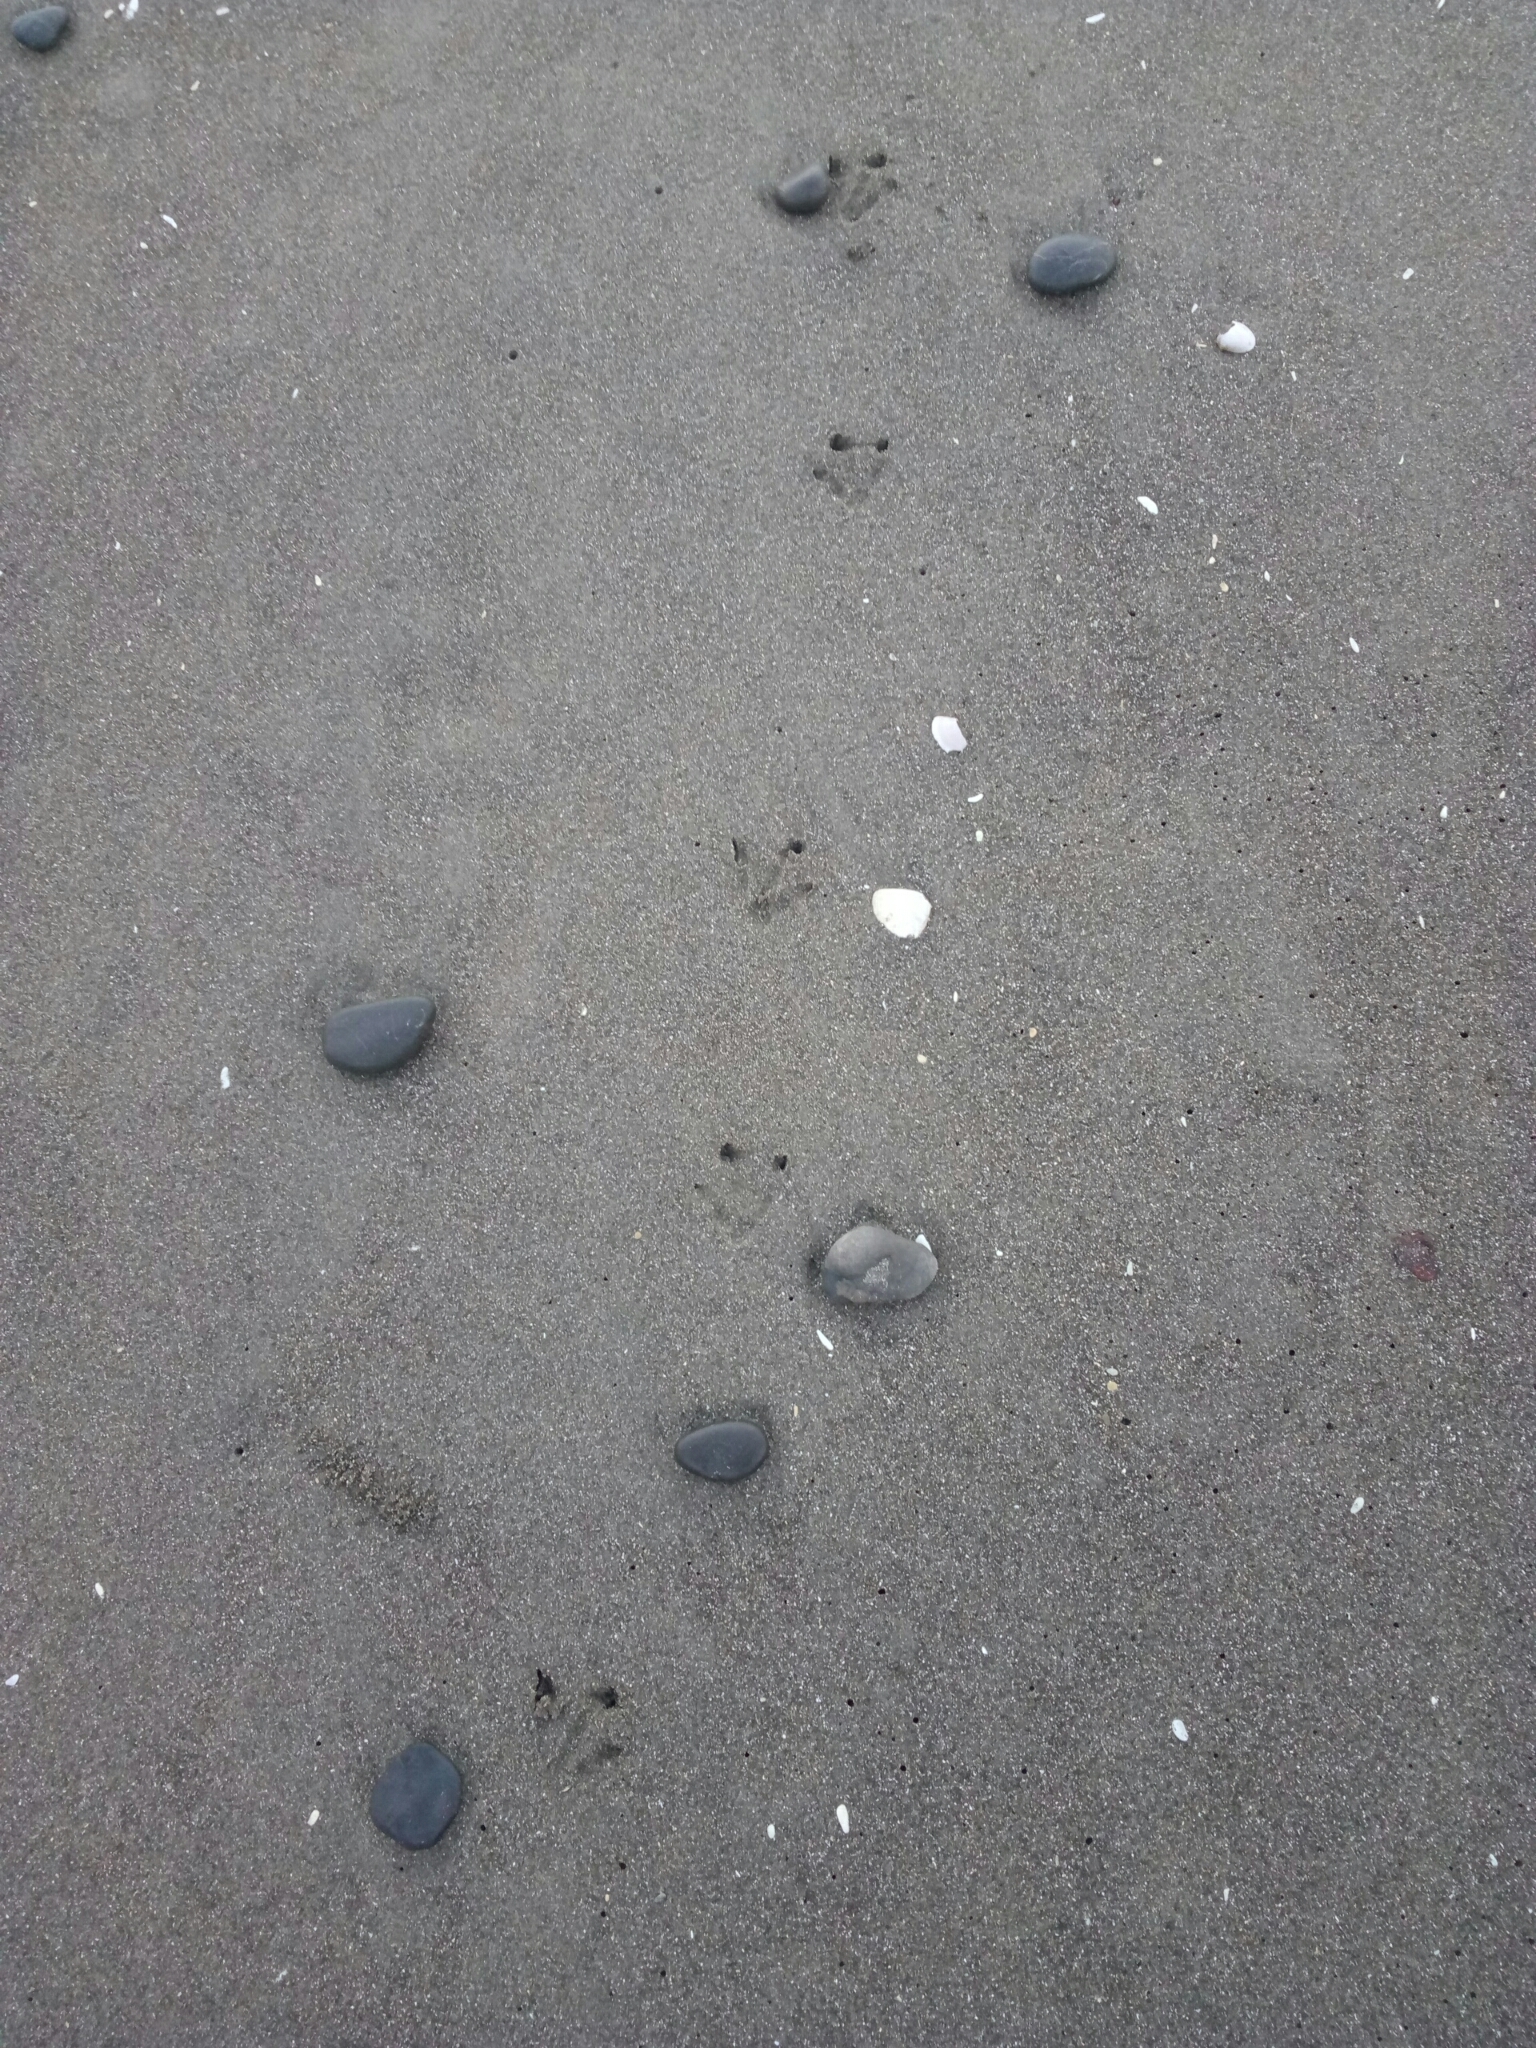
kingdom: Animalia
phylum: Chordata
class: Aves
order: Sphenisciformes
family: Spheniscidae
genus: Eudyptula
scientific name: Eudyptula minor
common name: Little penguin
